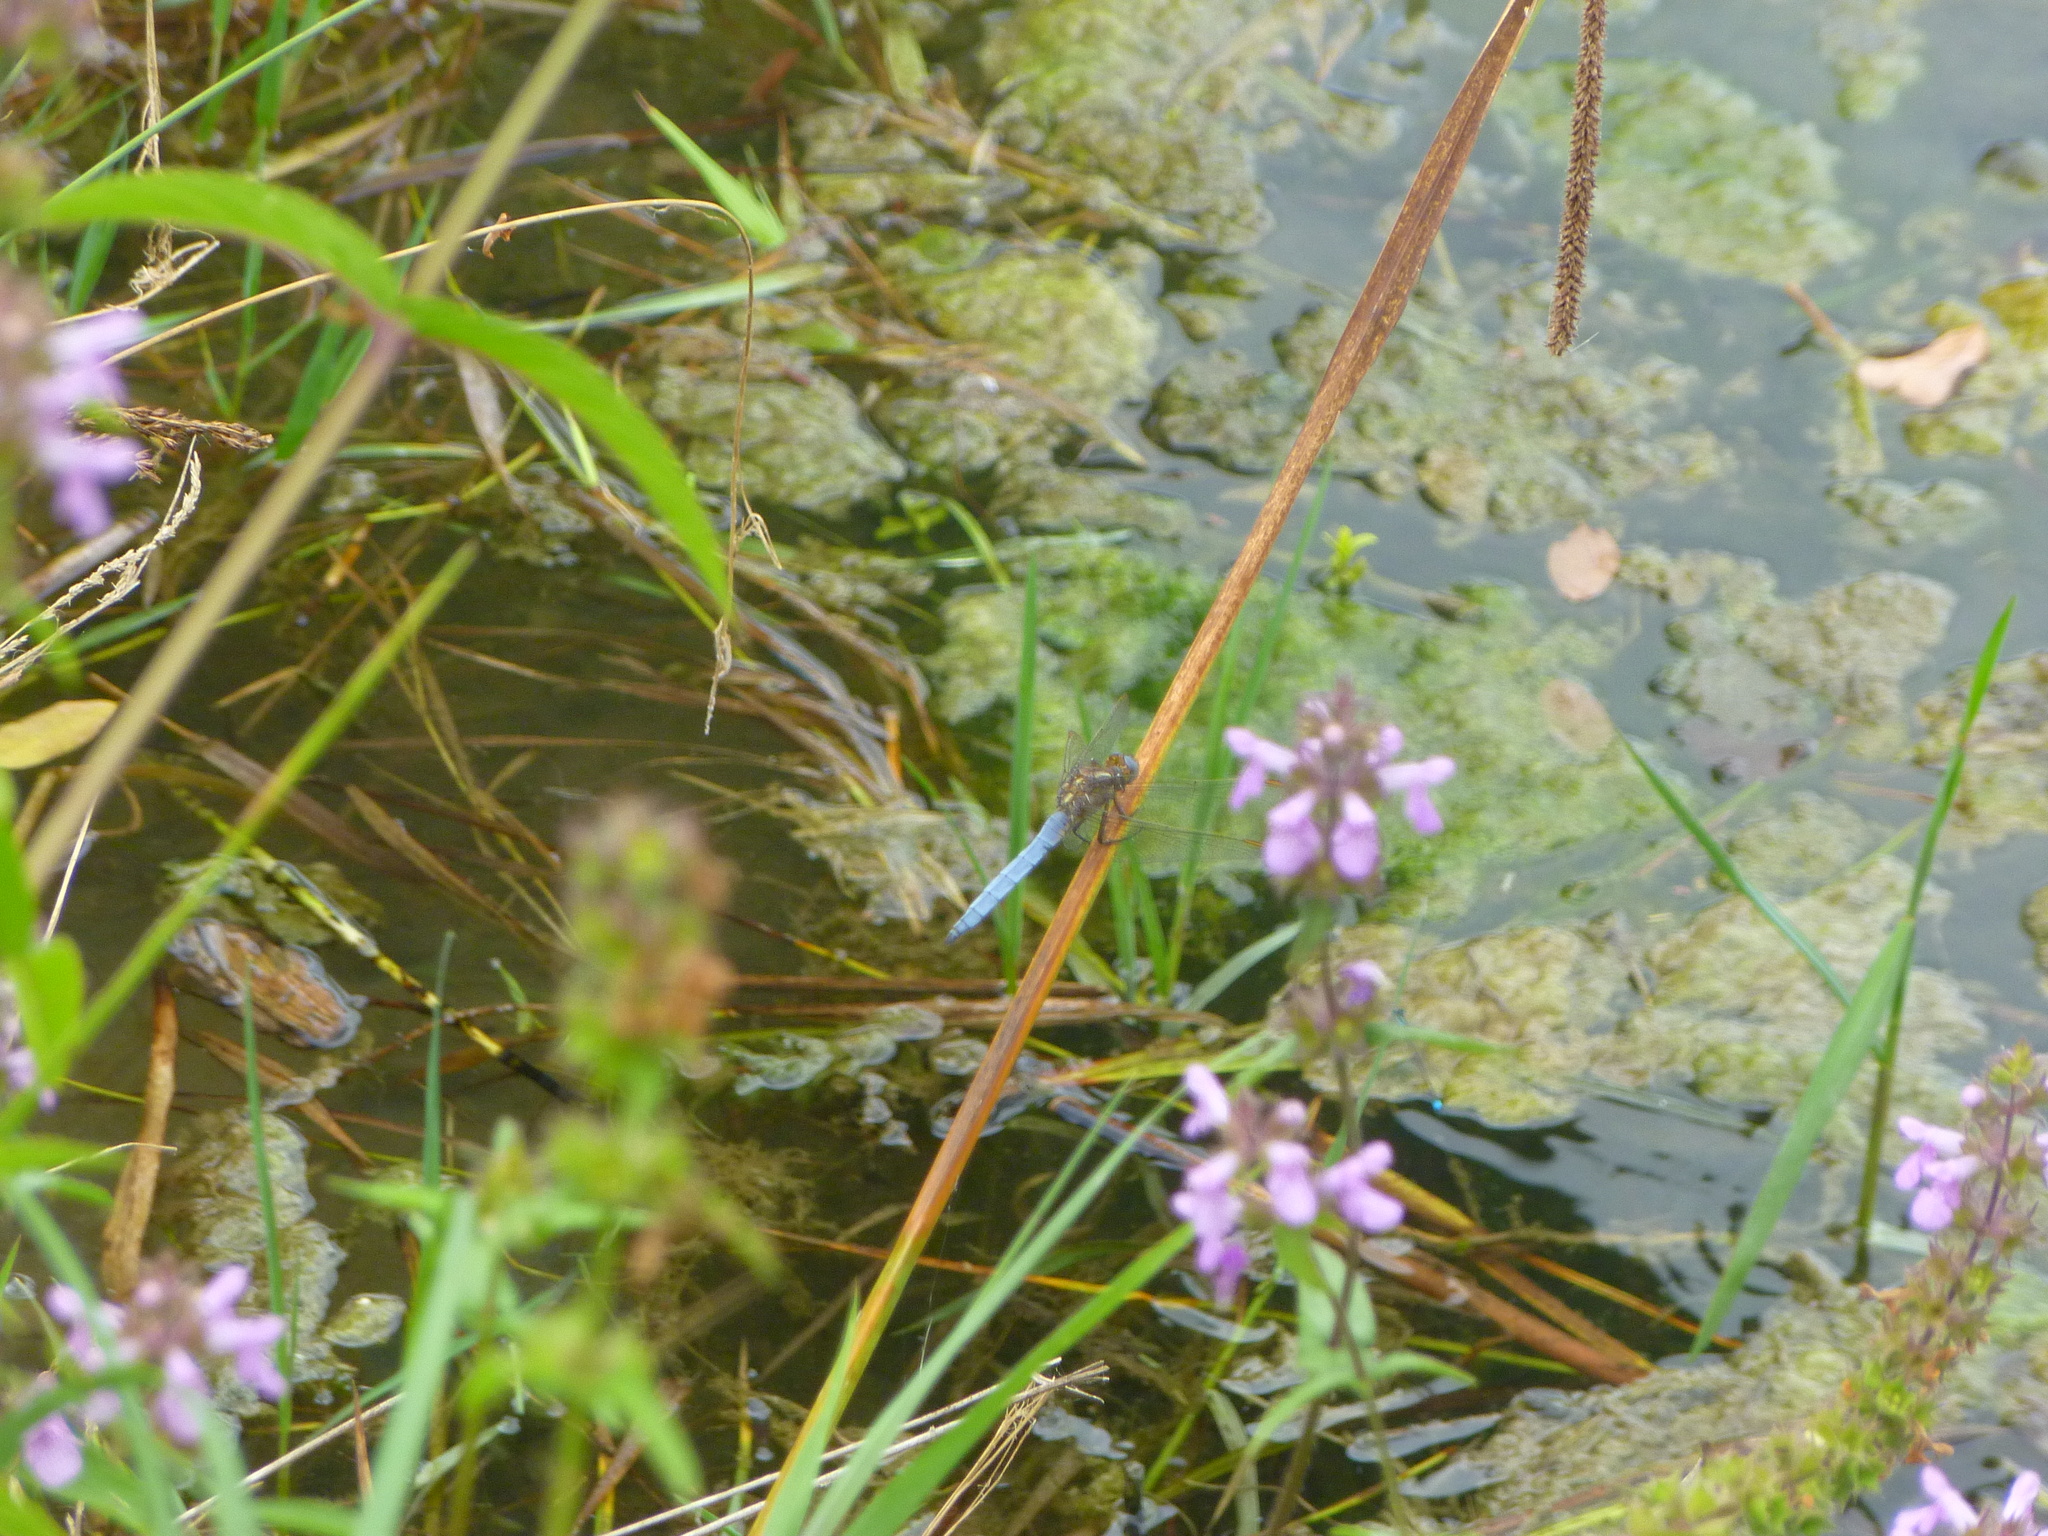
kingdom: Animalia
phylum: Arthropoda
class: Insecta
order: Odonata
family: Libellulidae
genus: Orthetrum
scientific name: Orthetrum coerulescens
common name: Keeled skimmer
